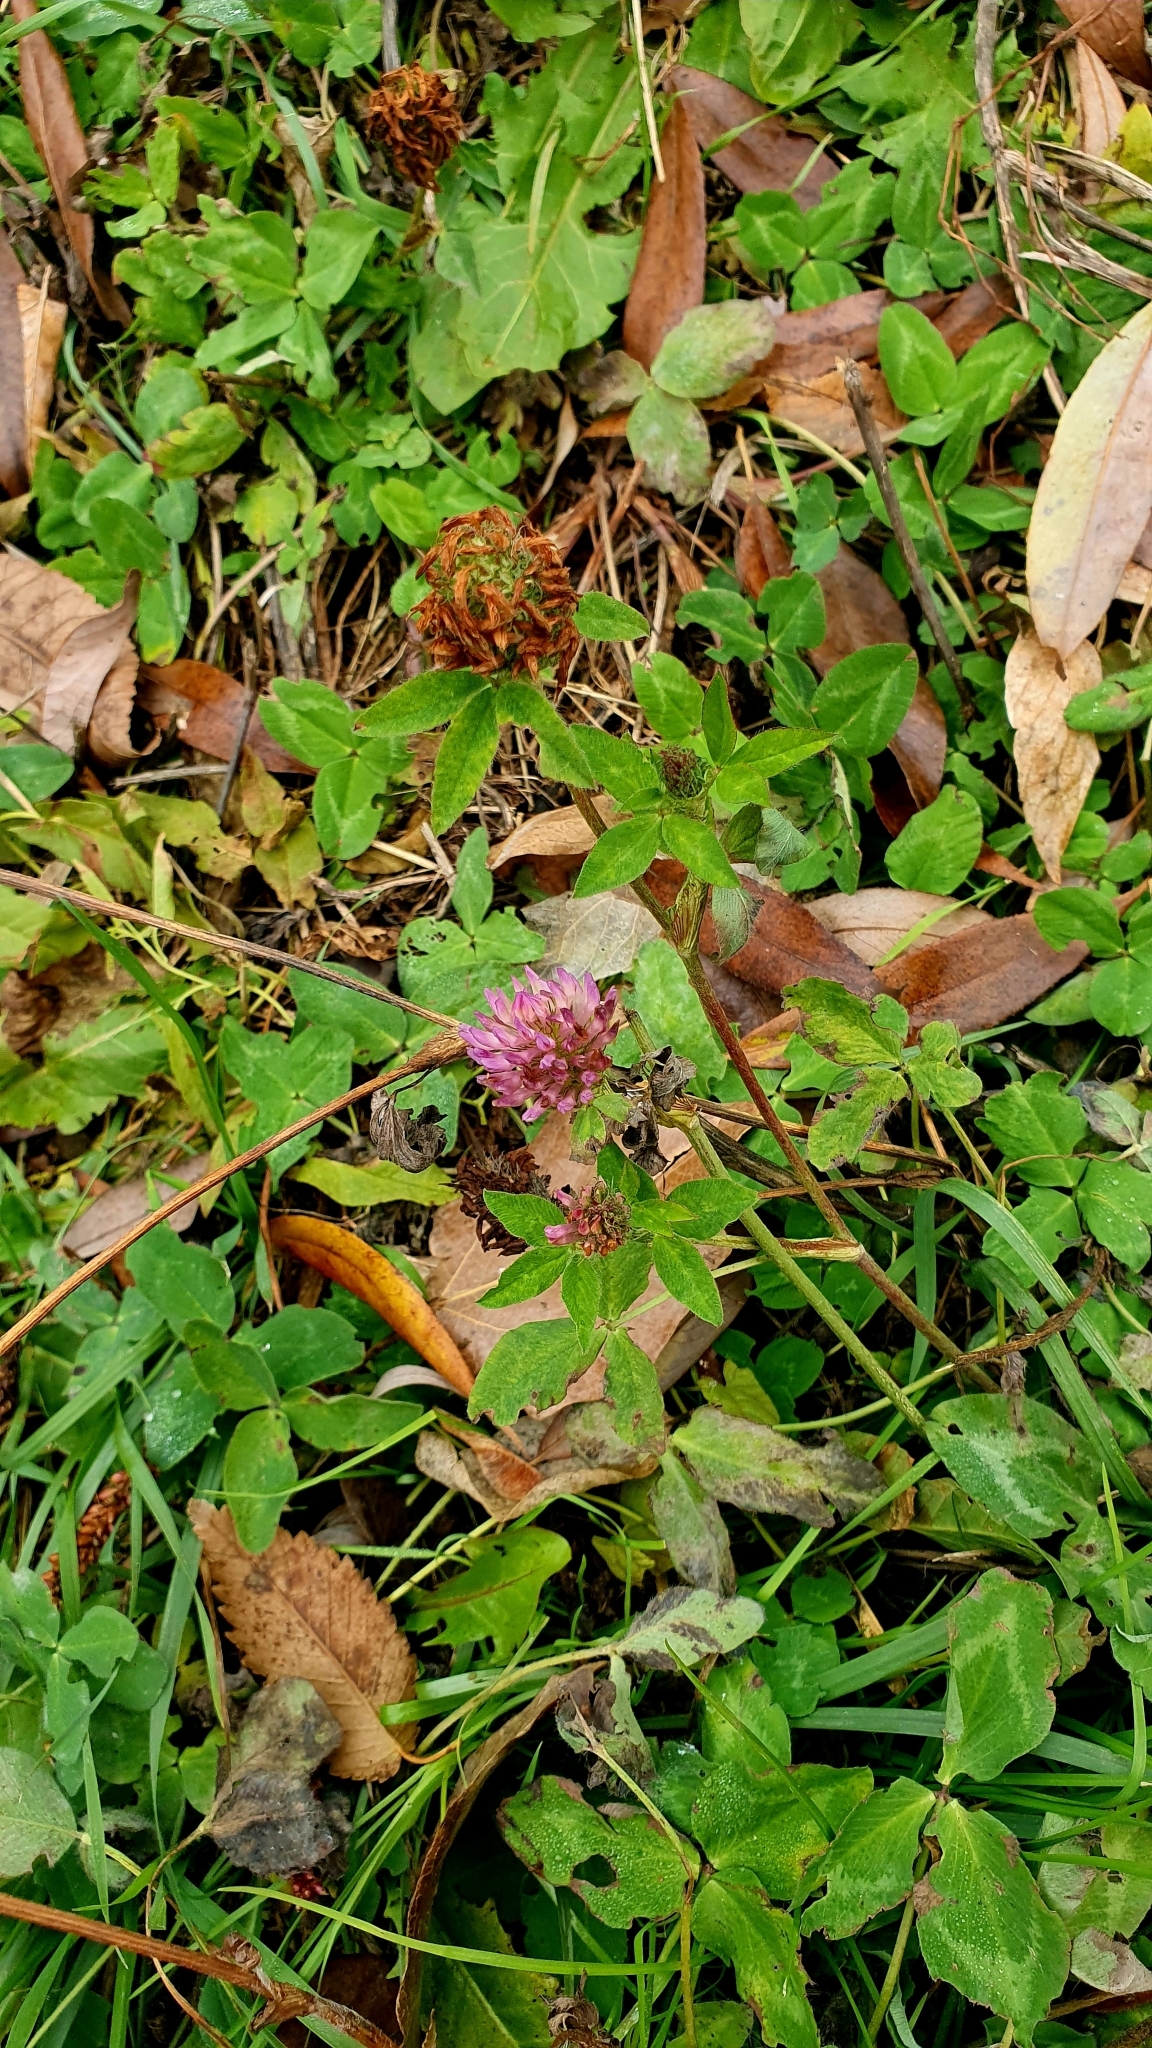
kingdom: Plantae
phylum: Tracheophyta
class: Magnoliopsida
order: Fabales
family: Fabaceae
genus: Trifolium
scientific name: Trifolium pratense
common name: Red clover
